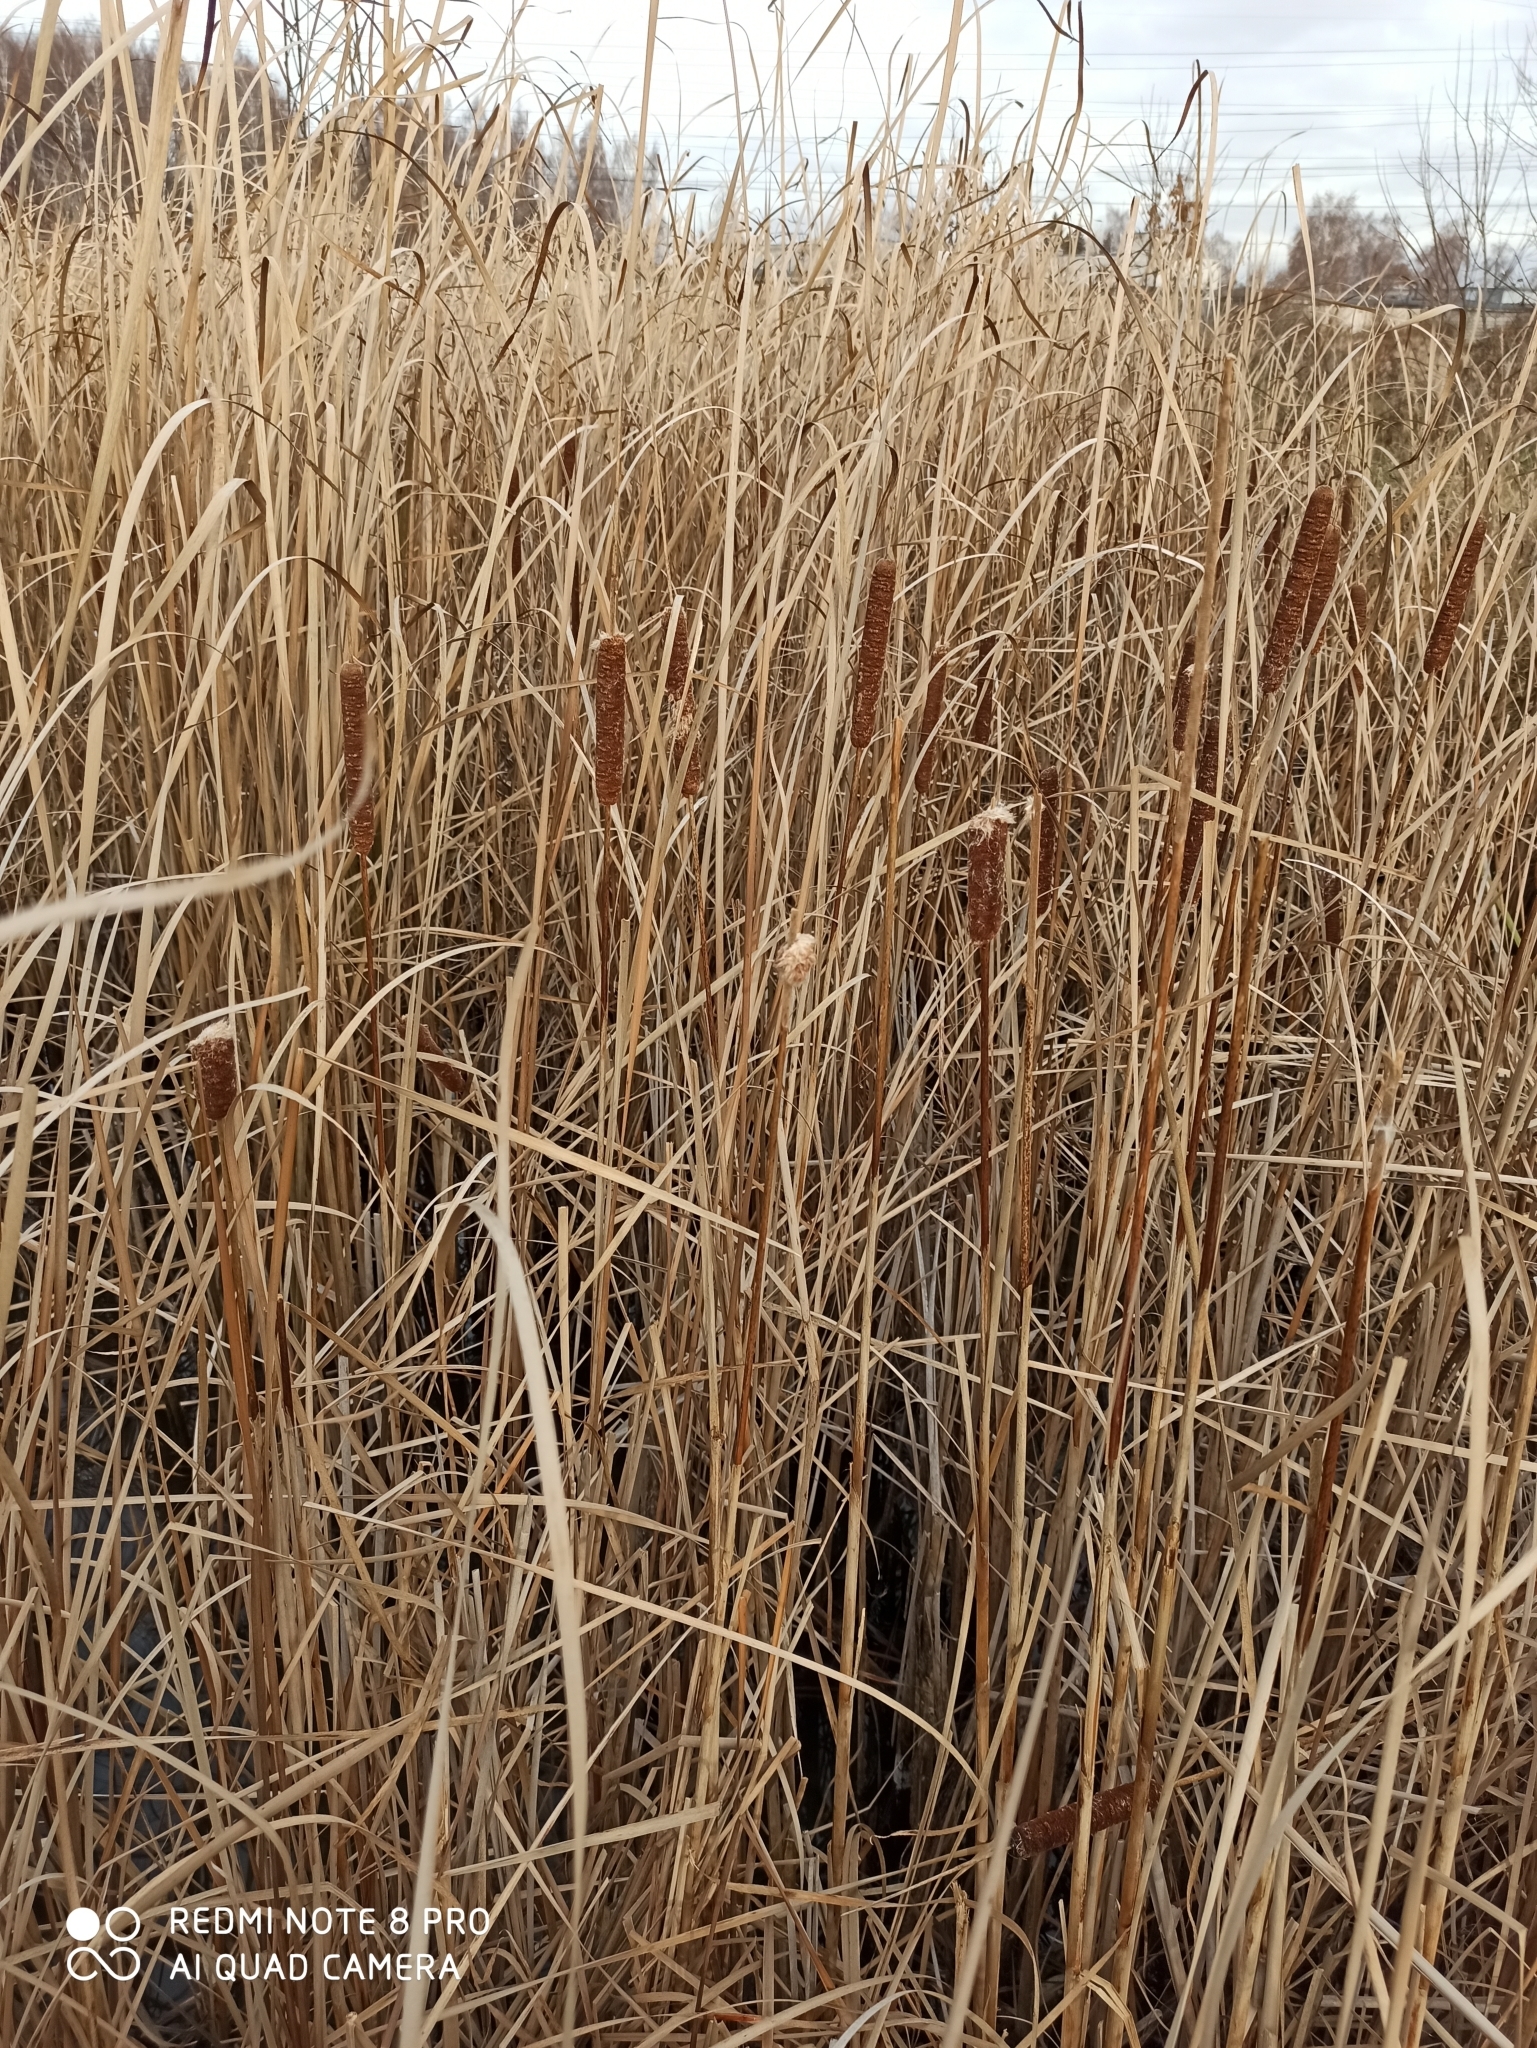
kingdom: Plantae
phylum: Tracheophyta
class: Liliopsida
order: Poales
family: Typhaceae
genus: Typha
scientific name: Typha angustifolia
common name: Lesser bulrush
